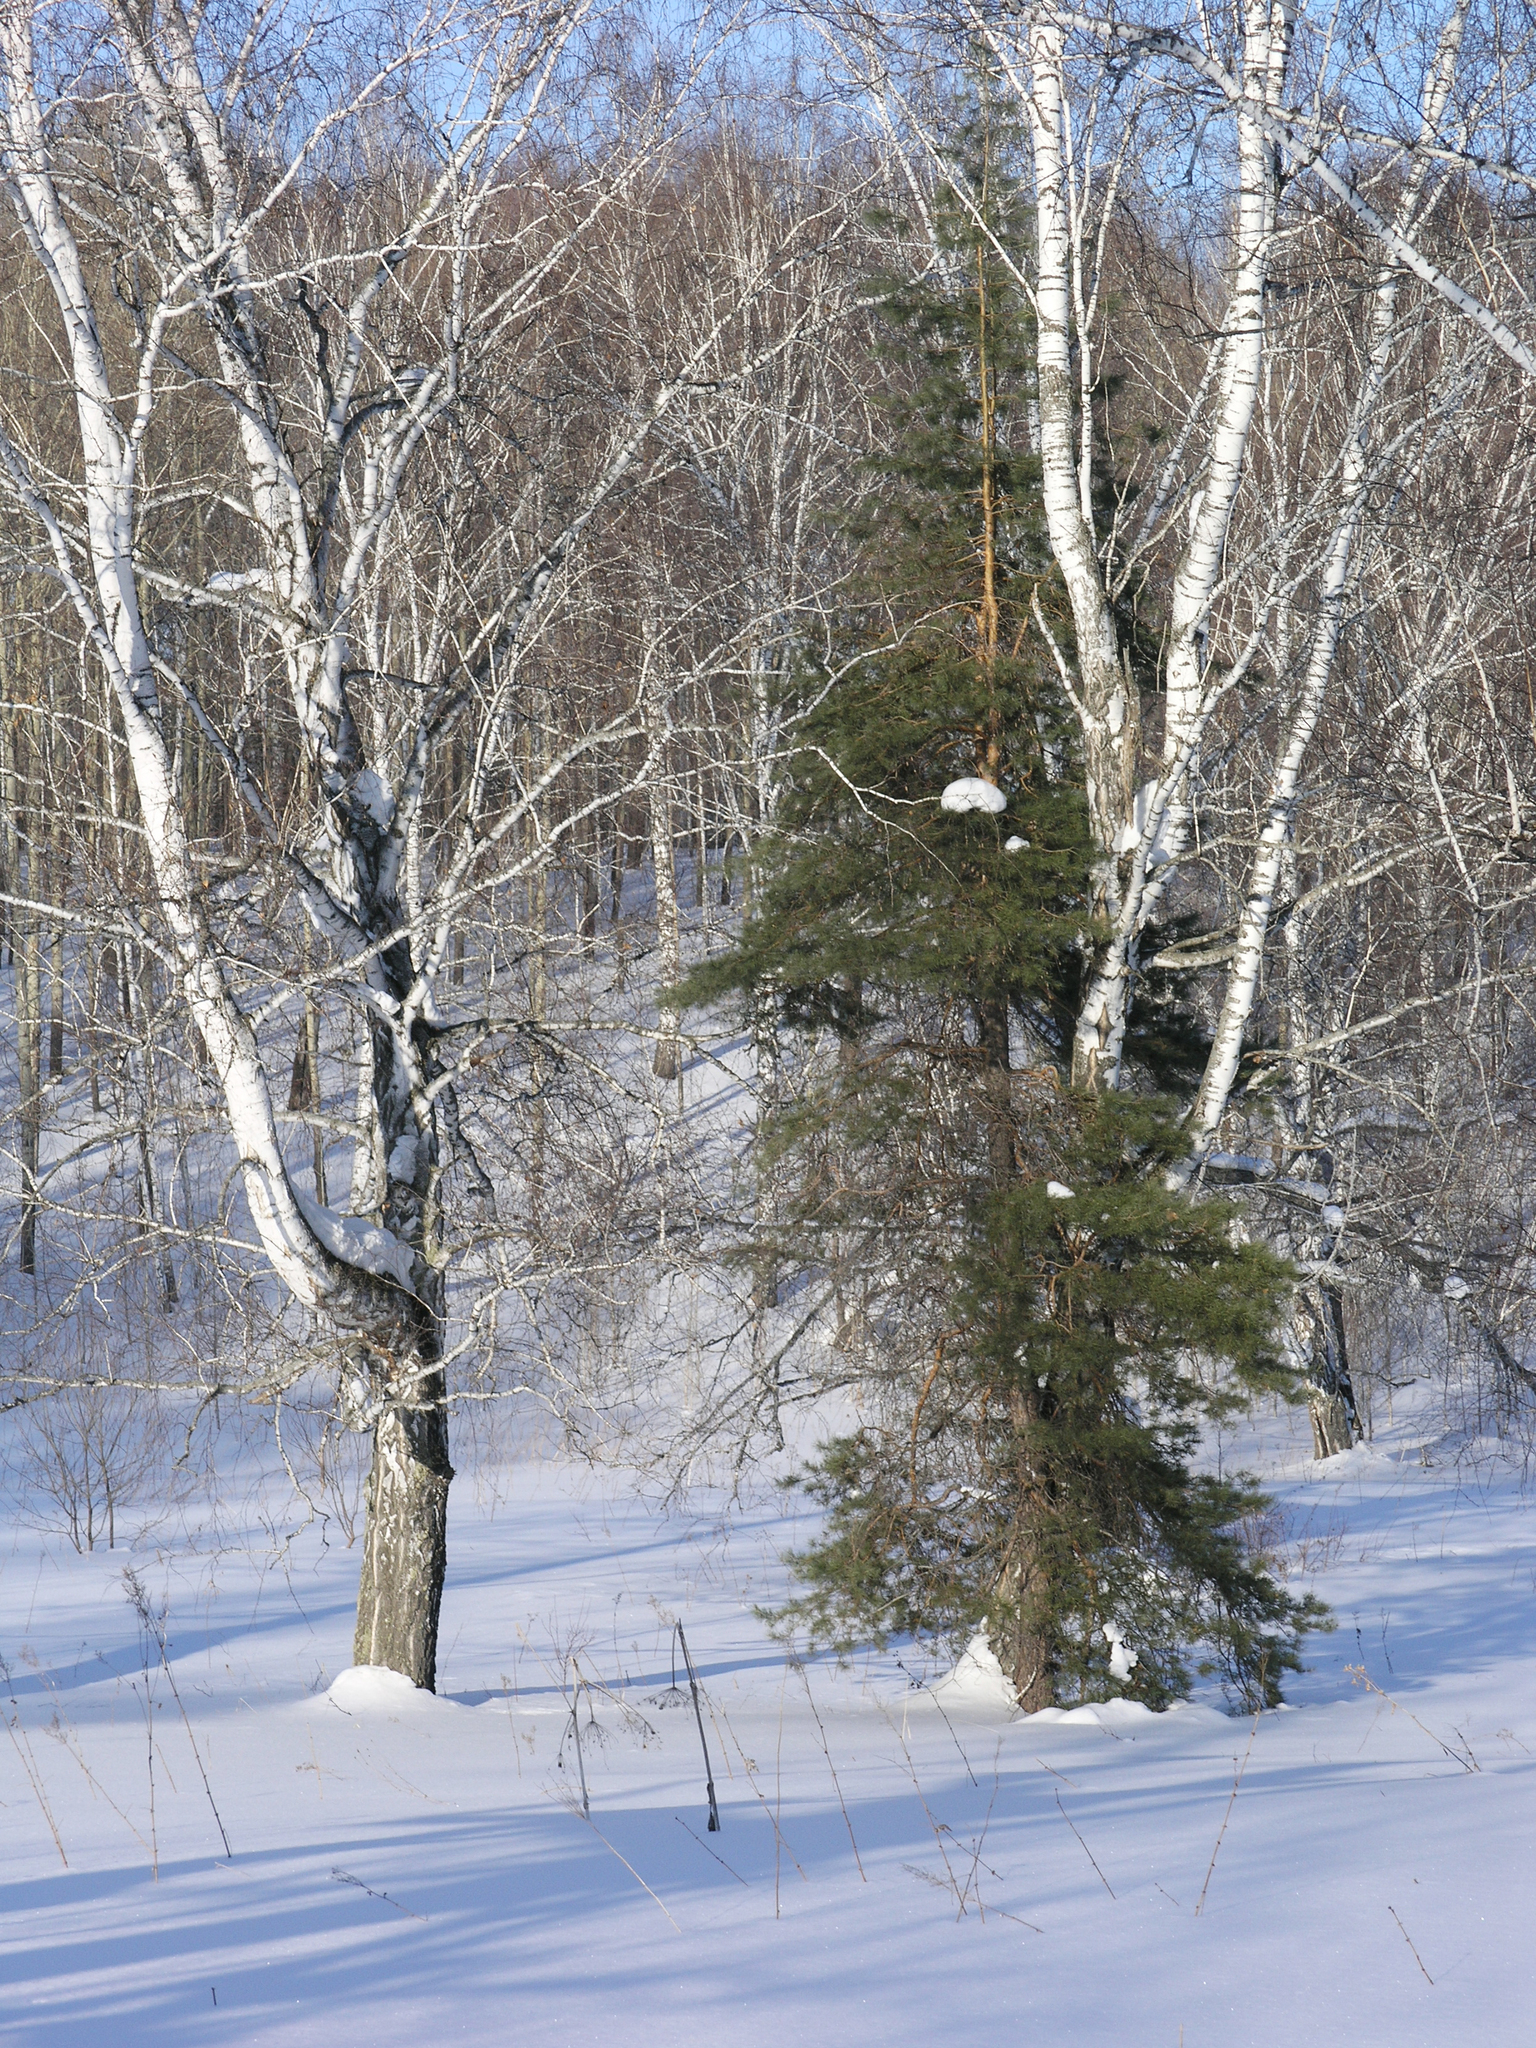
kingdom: Plantae
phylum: Tracheophyta
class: Pinopsida
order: Pinales
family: Pinaceae
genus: Pinus
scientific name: Pinus sylvestris
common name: Scots pine
